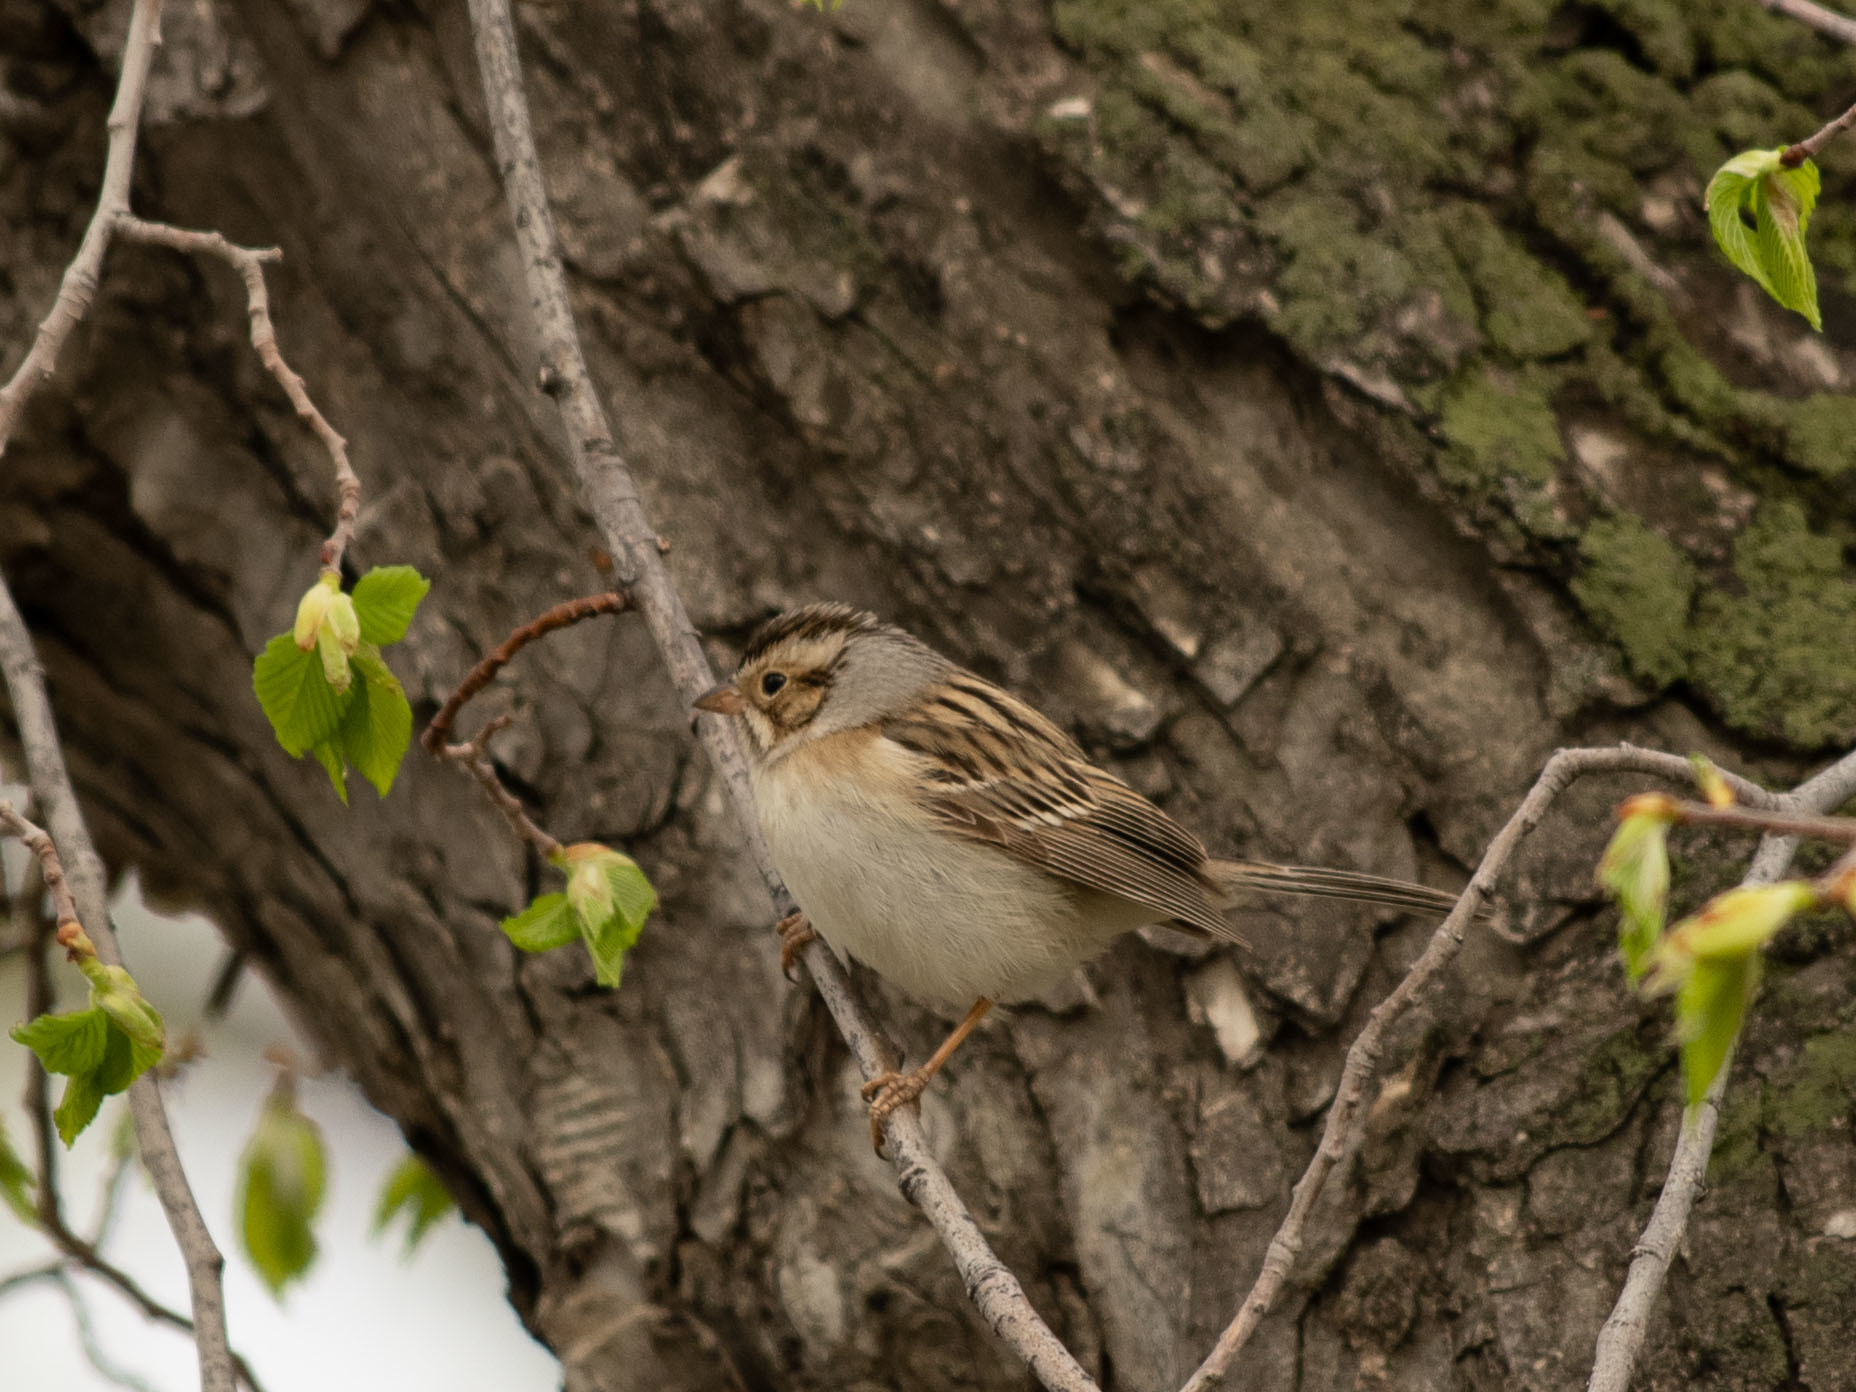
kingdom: Animalia
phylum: Chordata
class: Aves
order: Passeriformes
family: Passerellidae
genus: Spizella
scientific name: Spizella pallida
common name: Clay-colored sparrow
